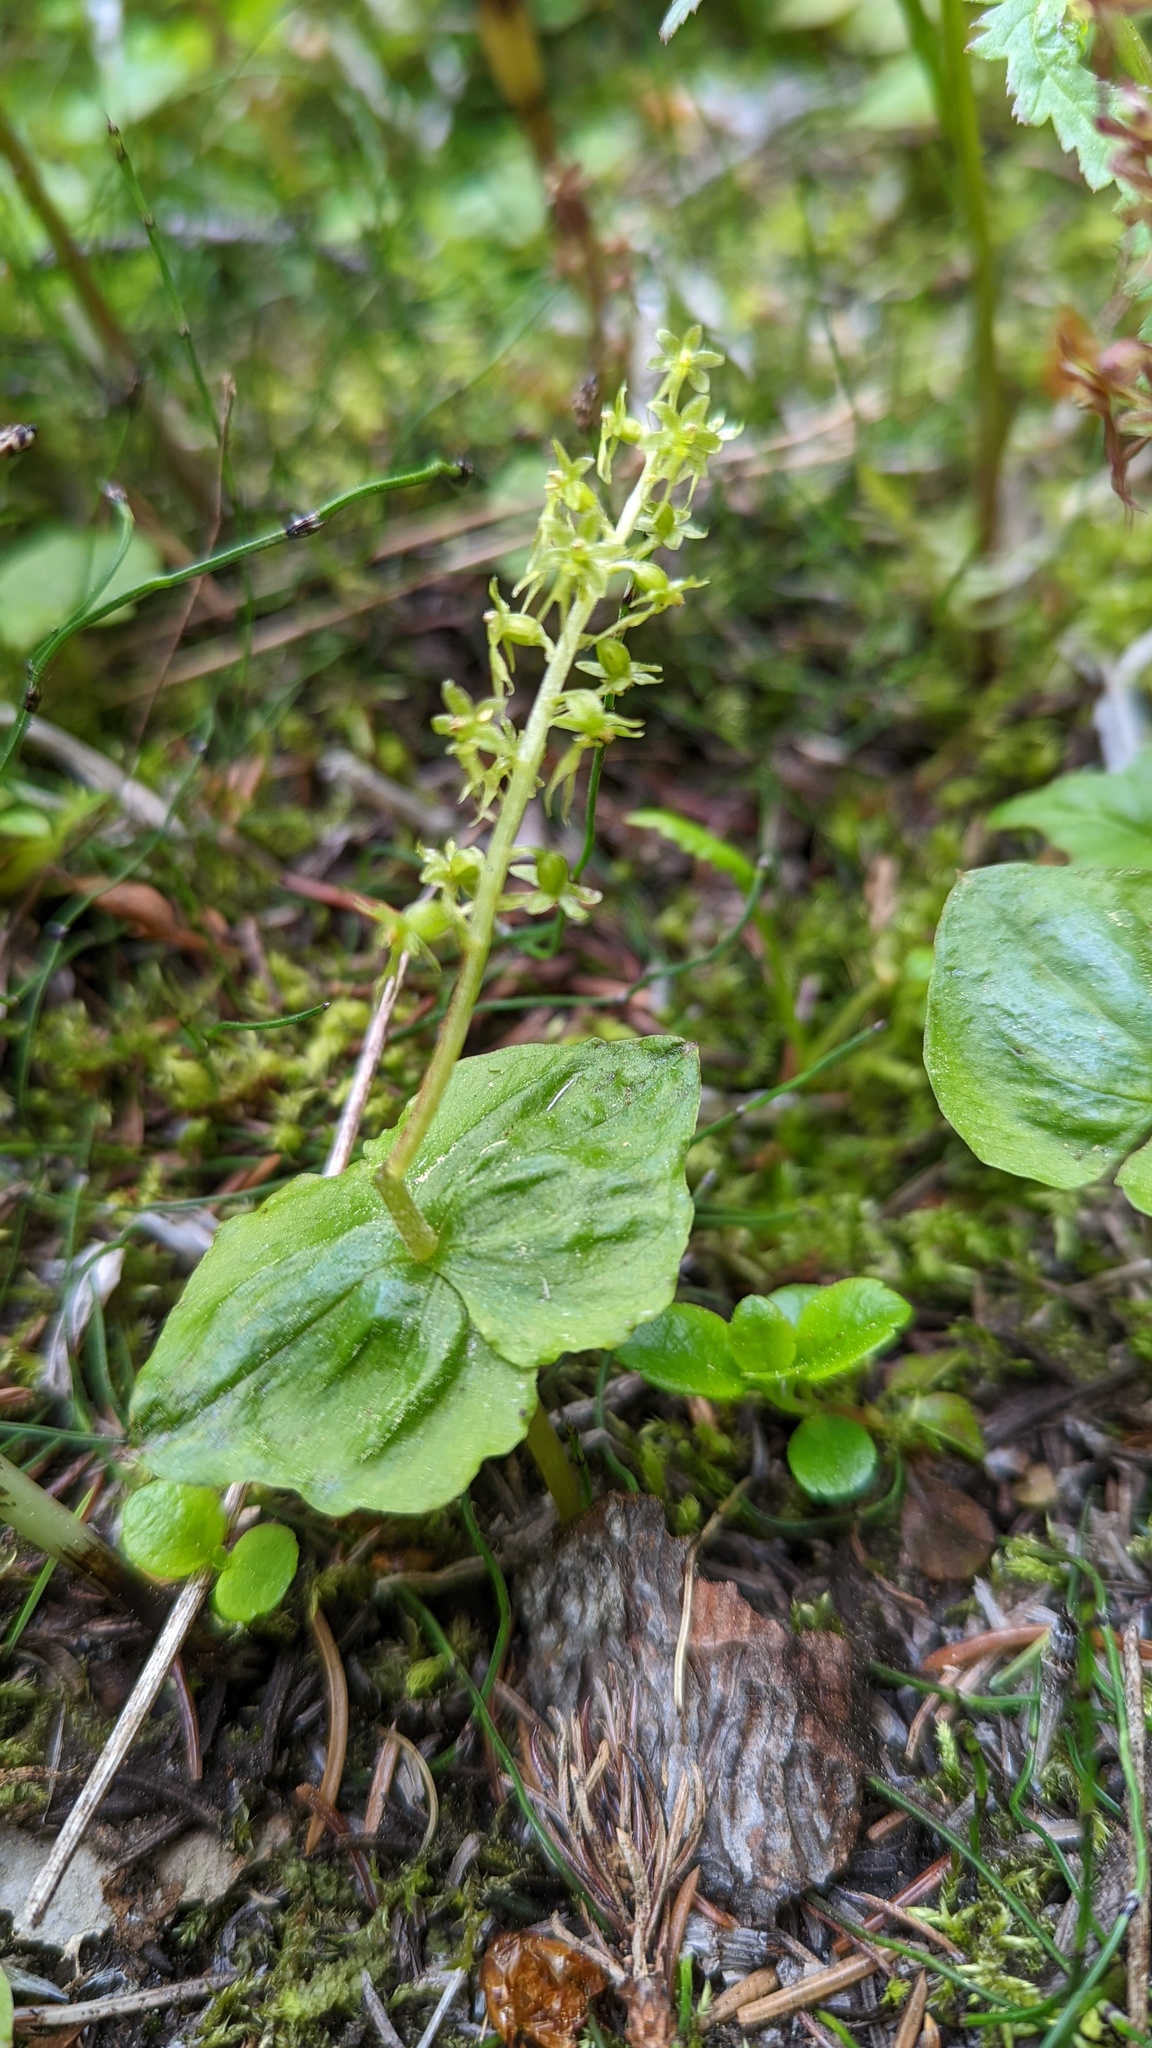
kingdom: Plantae
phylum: Tracheophyta
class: Liliopsida
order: Asparagales
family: Orchidaceae
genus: Neottia
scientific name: Neottia cordata
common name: Lesser twayblade
